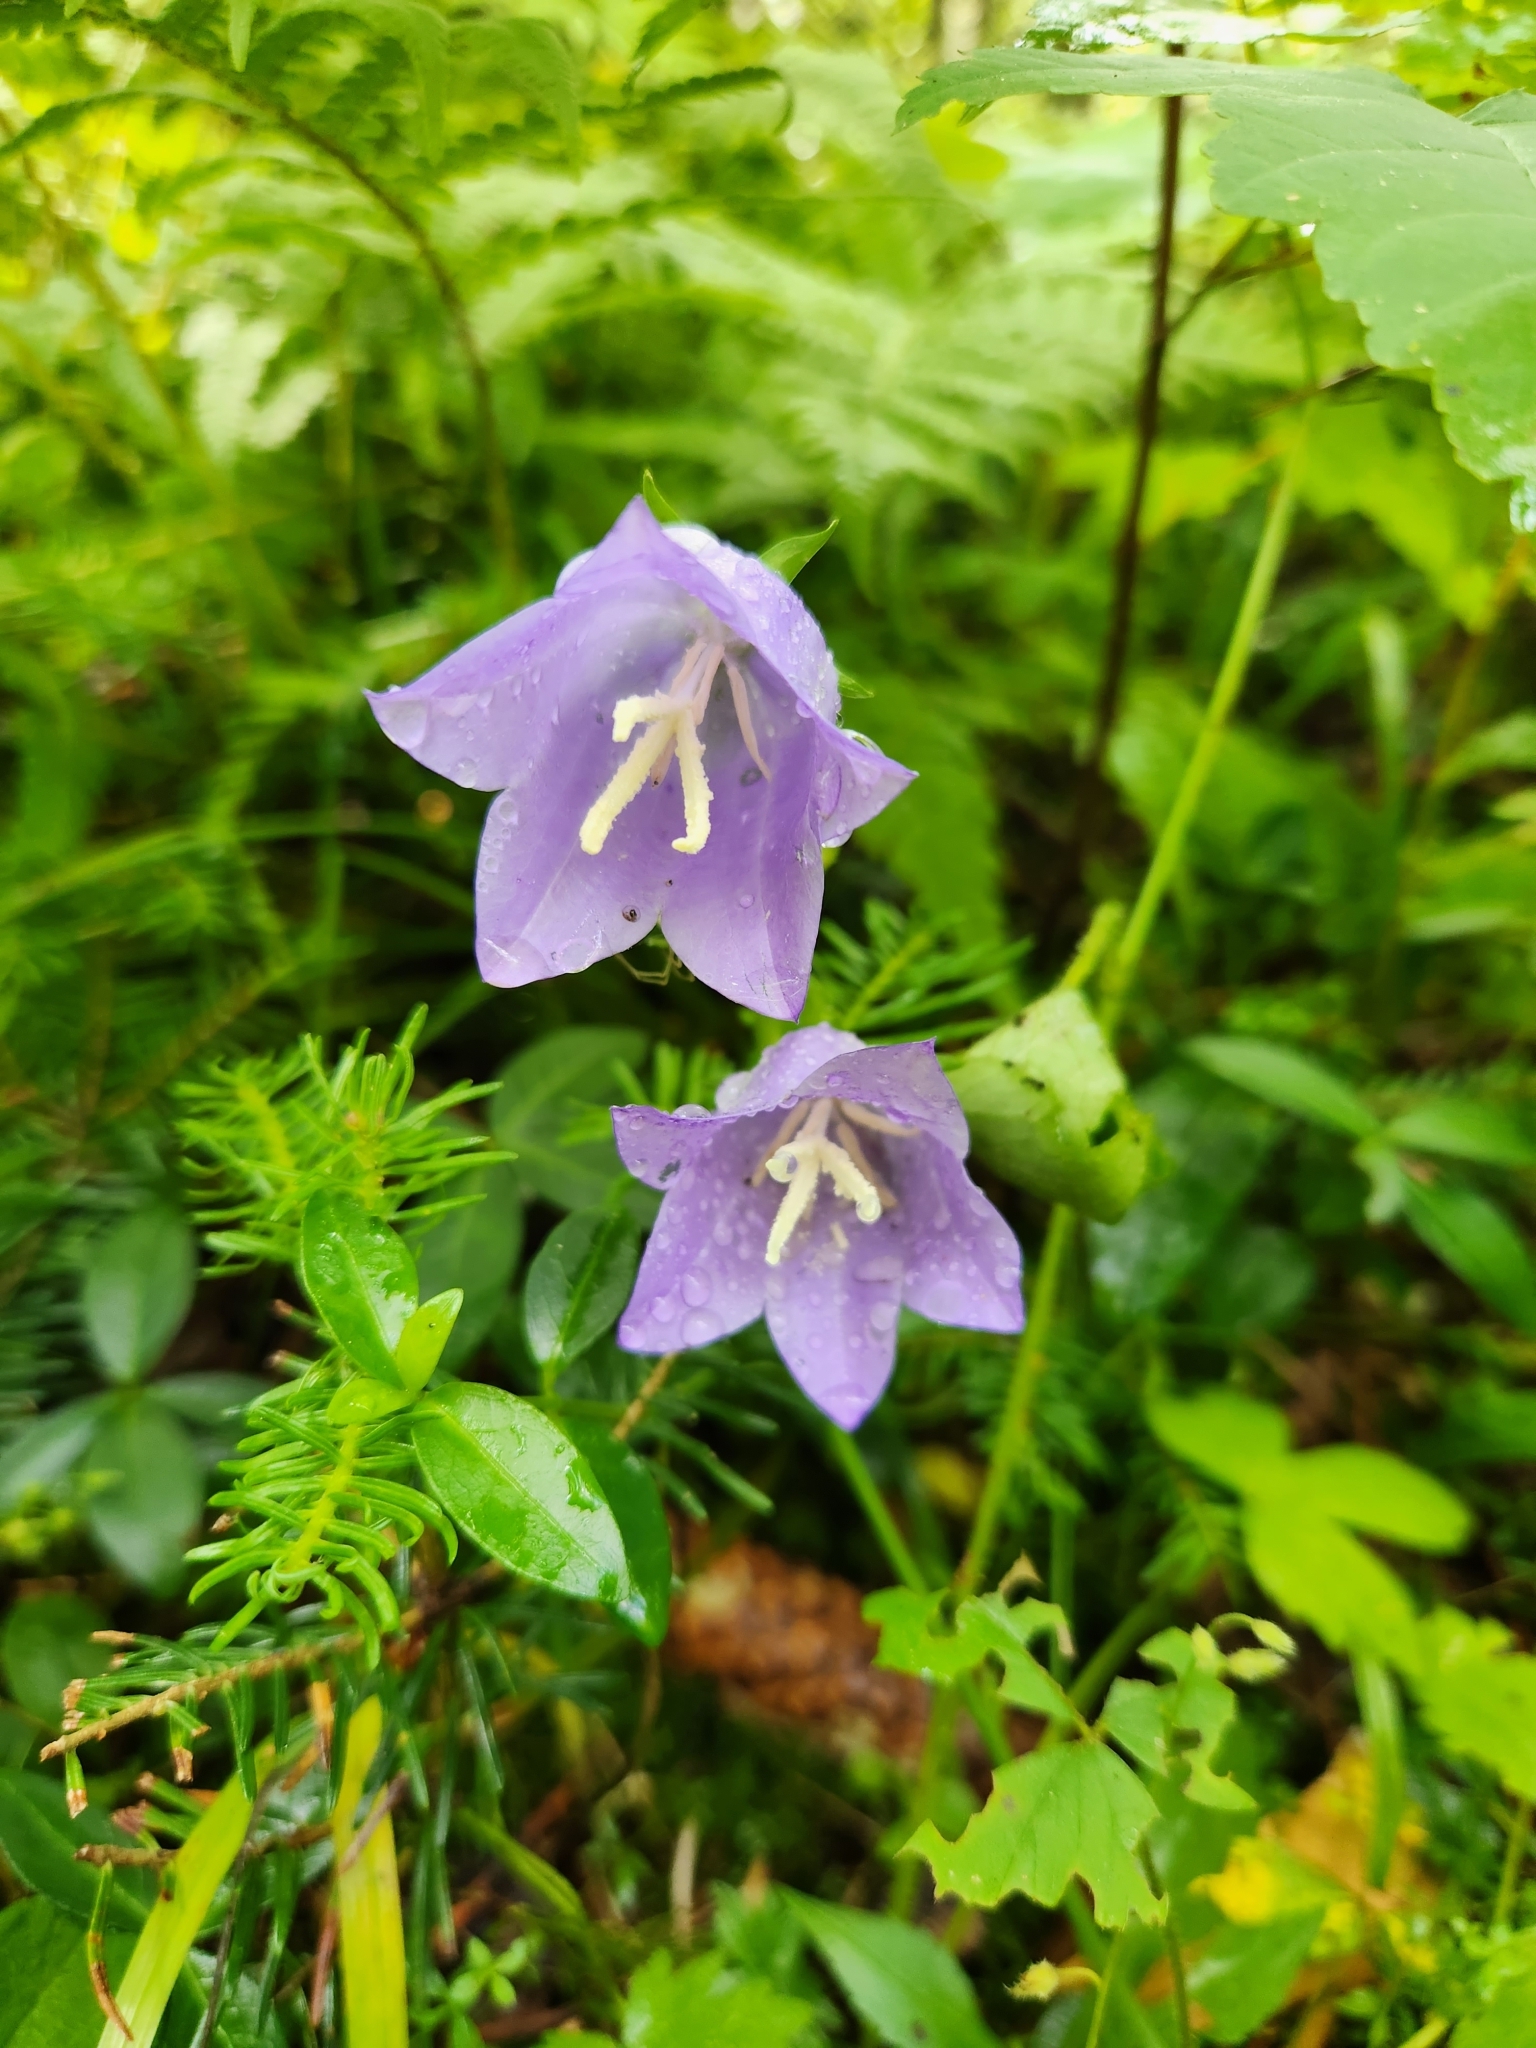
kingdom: Plantae
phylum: Tracheophyta
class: Magnoliopsida
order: Asterales
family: Campanulaceae
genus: Campanula
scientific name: Campanula persicifolia
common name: Peach-leaved bellflower
